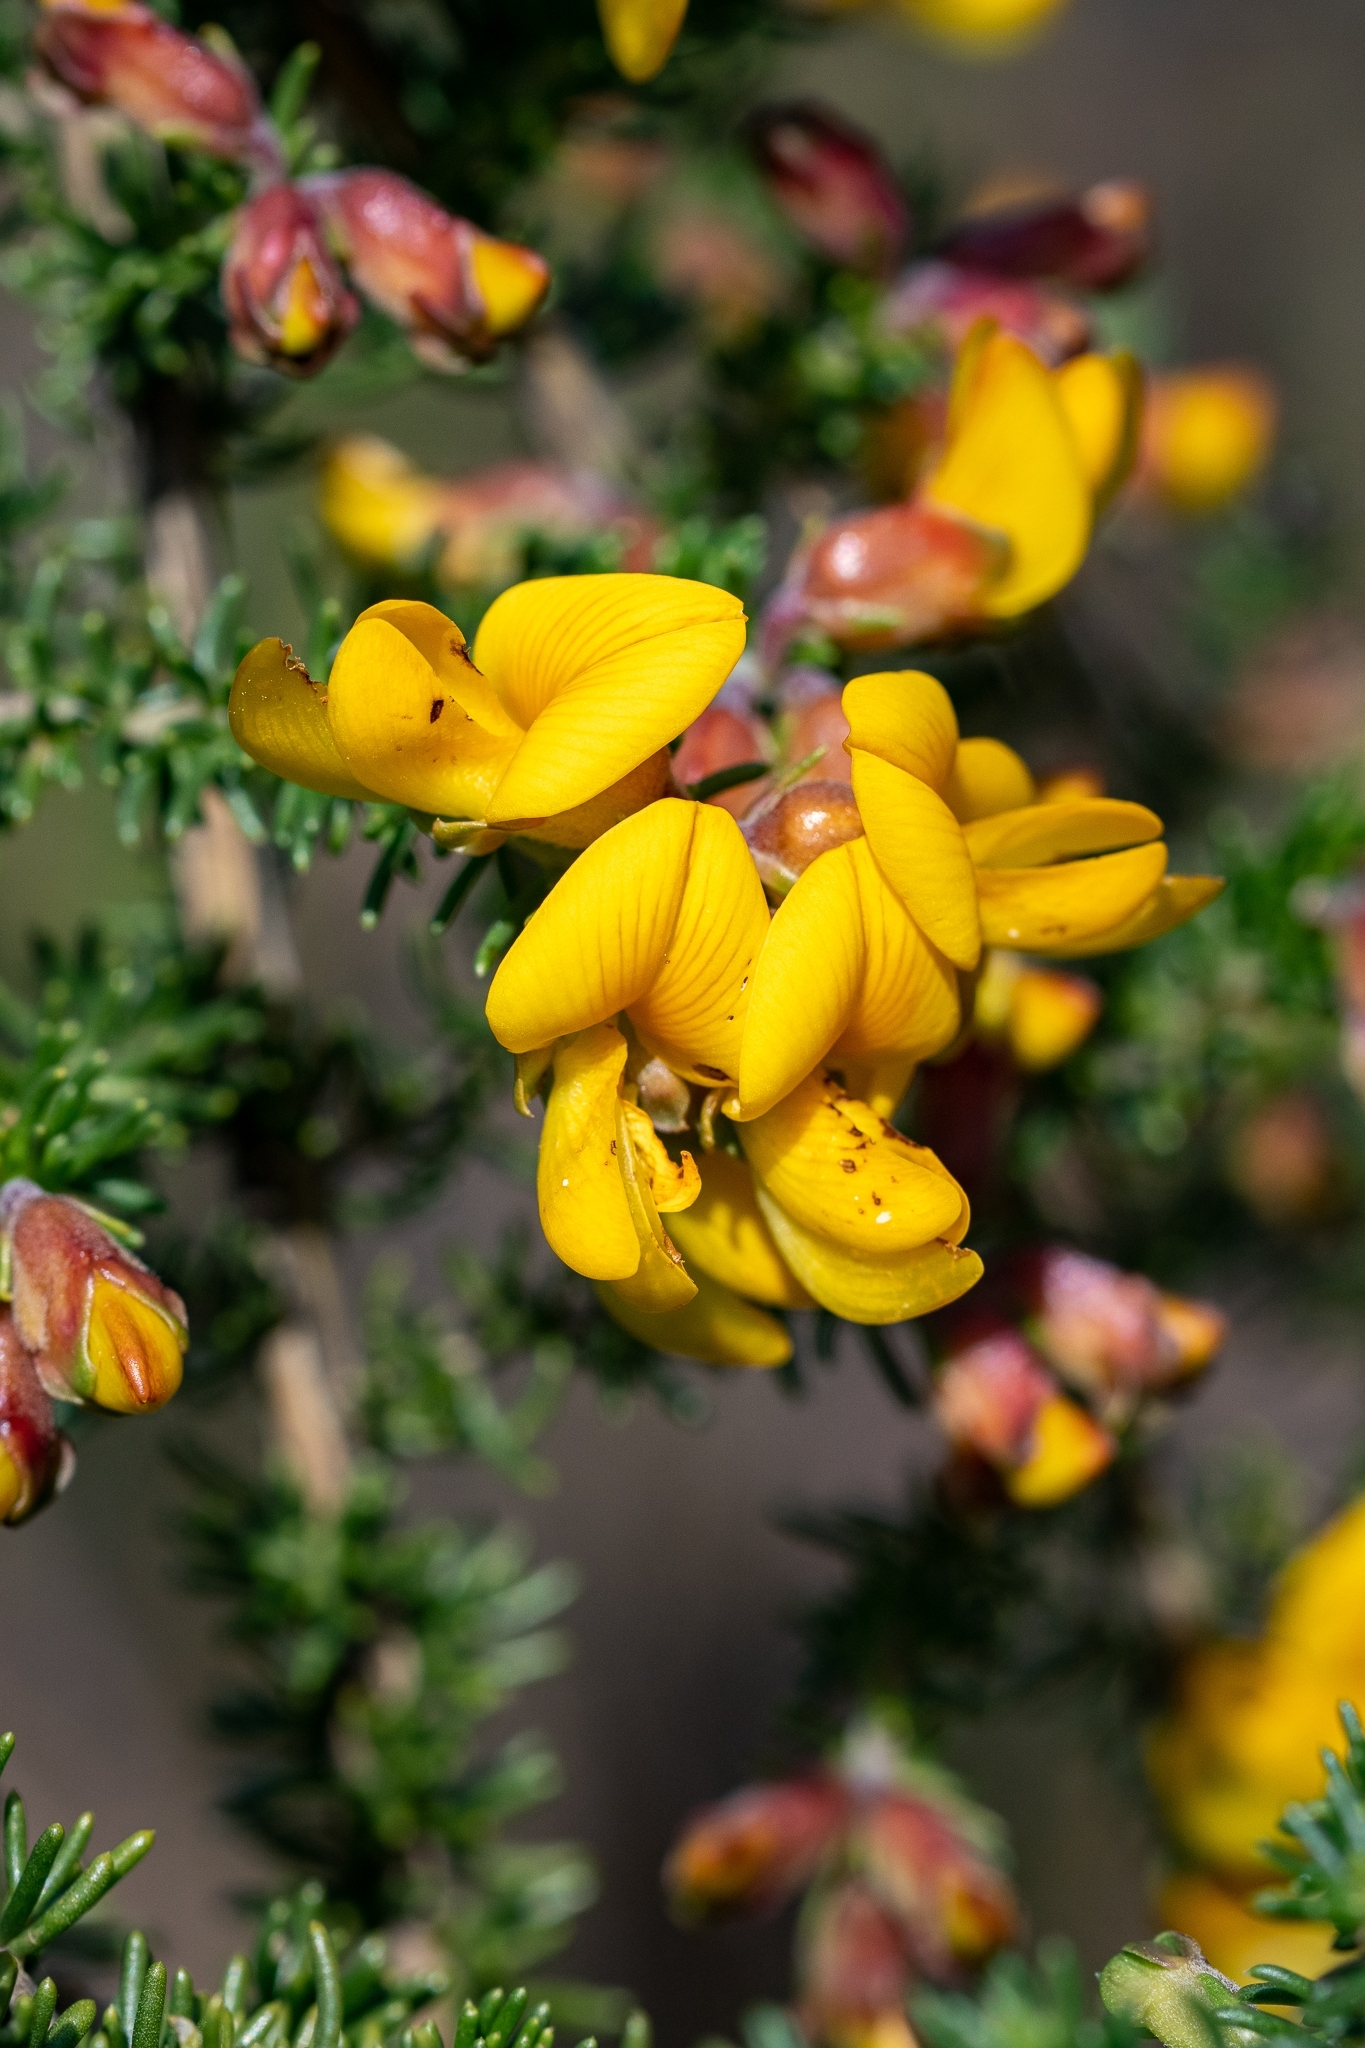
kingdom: Plantae
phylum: Tracheophyta
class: Magnoliopsida
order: Fabales
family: Fabaceae
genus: Aspalathus
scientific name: Aspalathus carnosa
